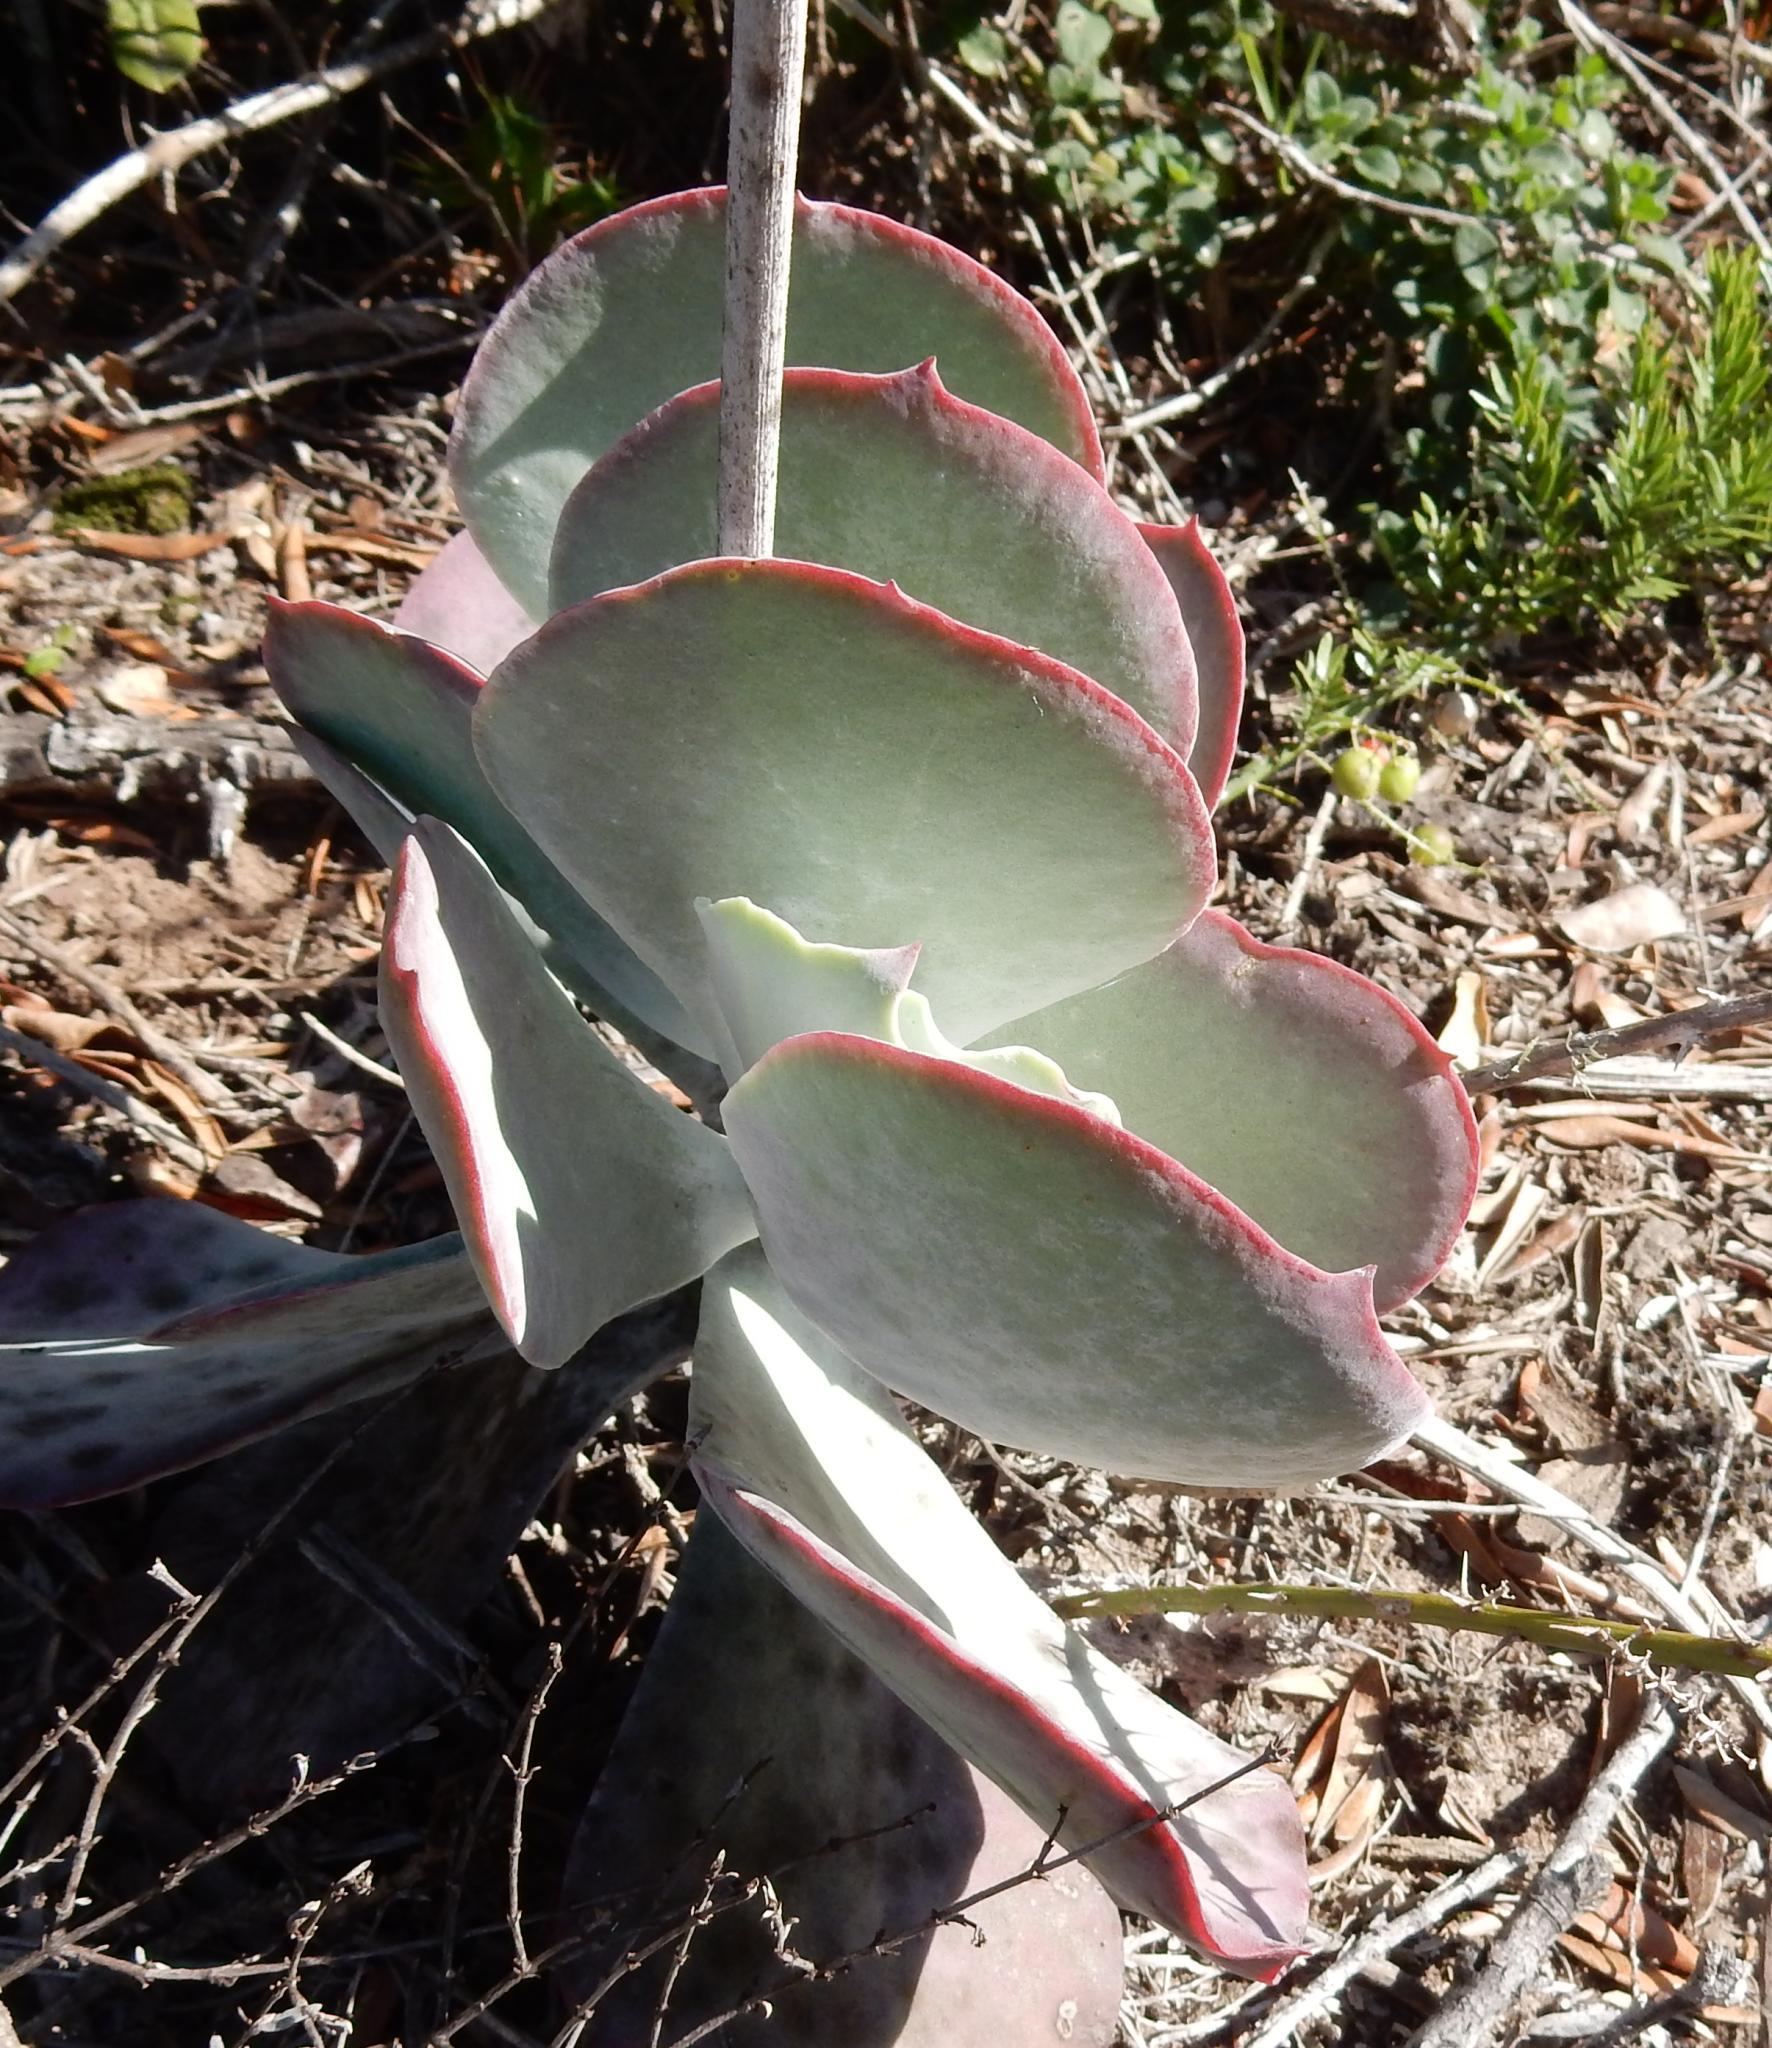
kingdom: Plantae
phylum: Tracheophyta
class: Magnoliopsida
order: Saxifragales
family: Crassulaceae
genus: Cotyledon
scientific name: Cotyledon orbiculata
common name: Pig's ear
